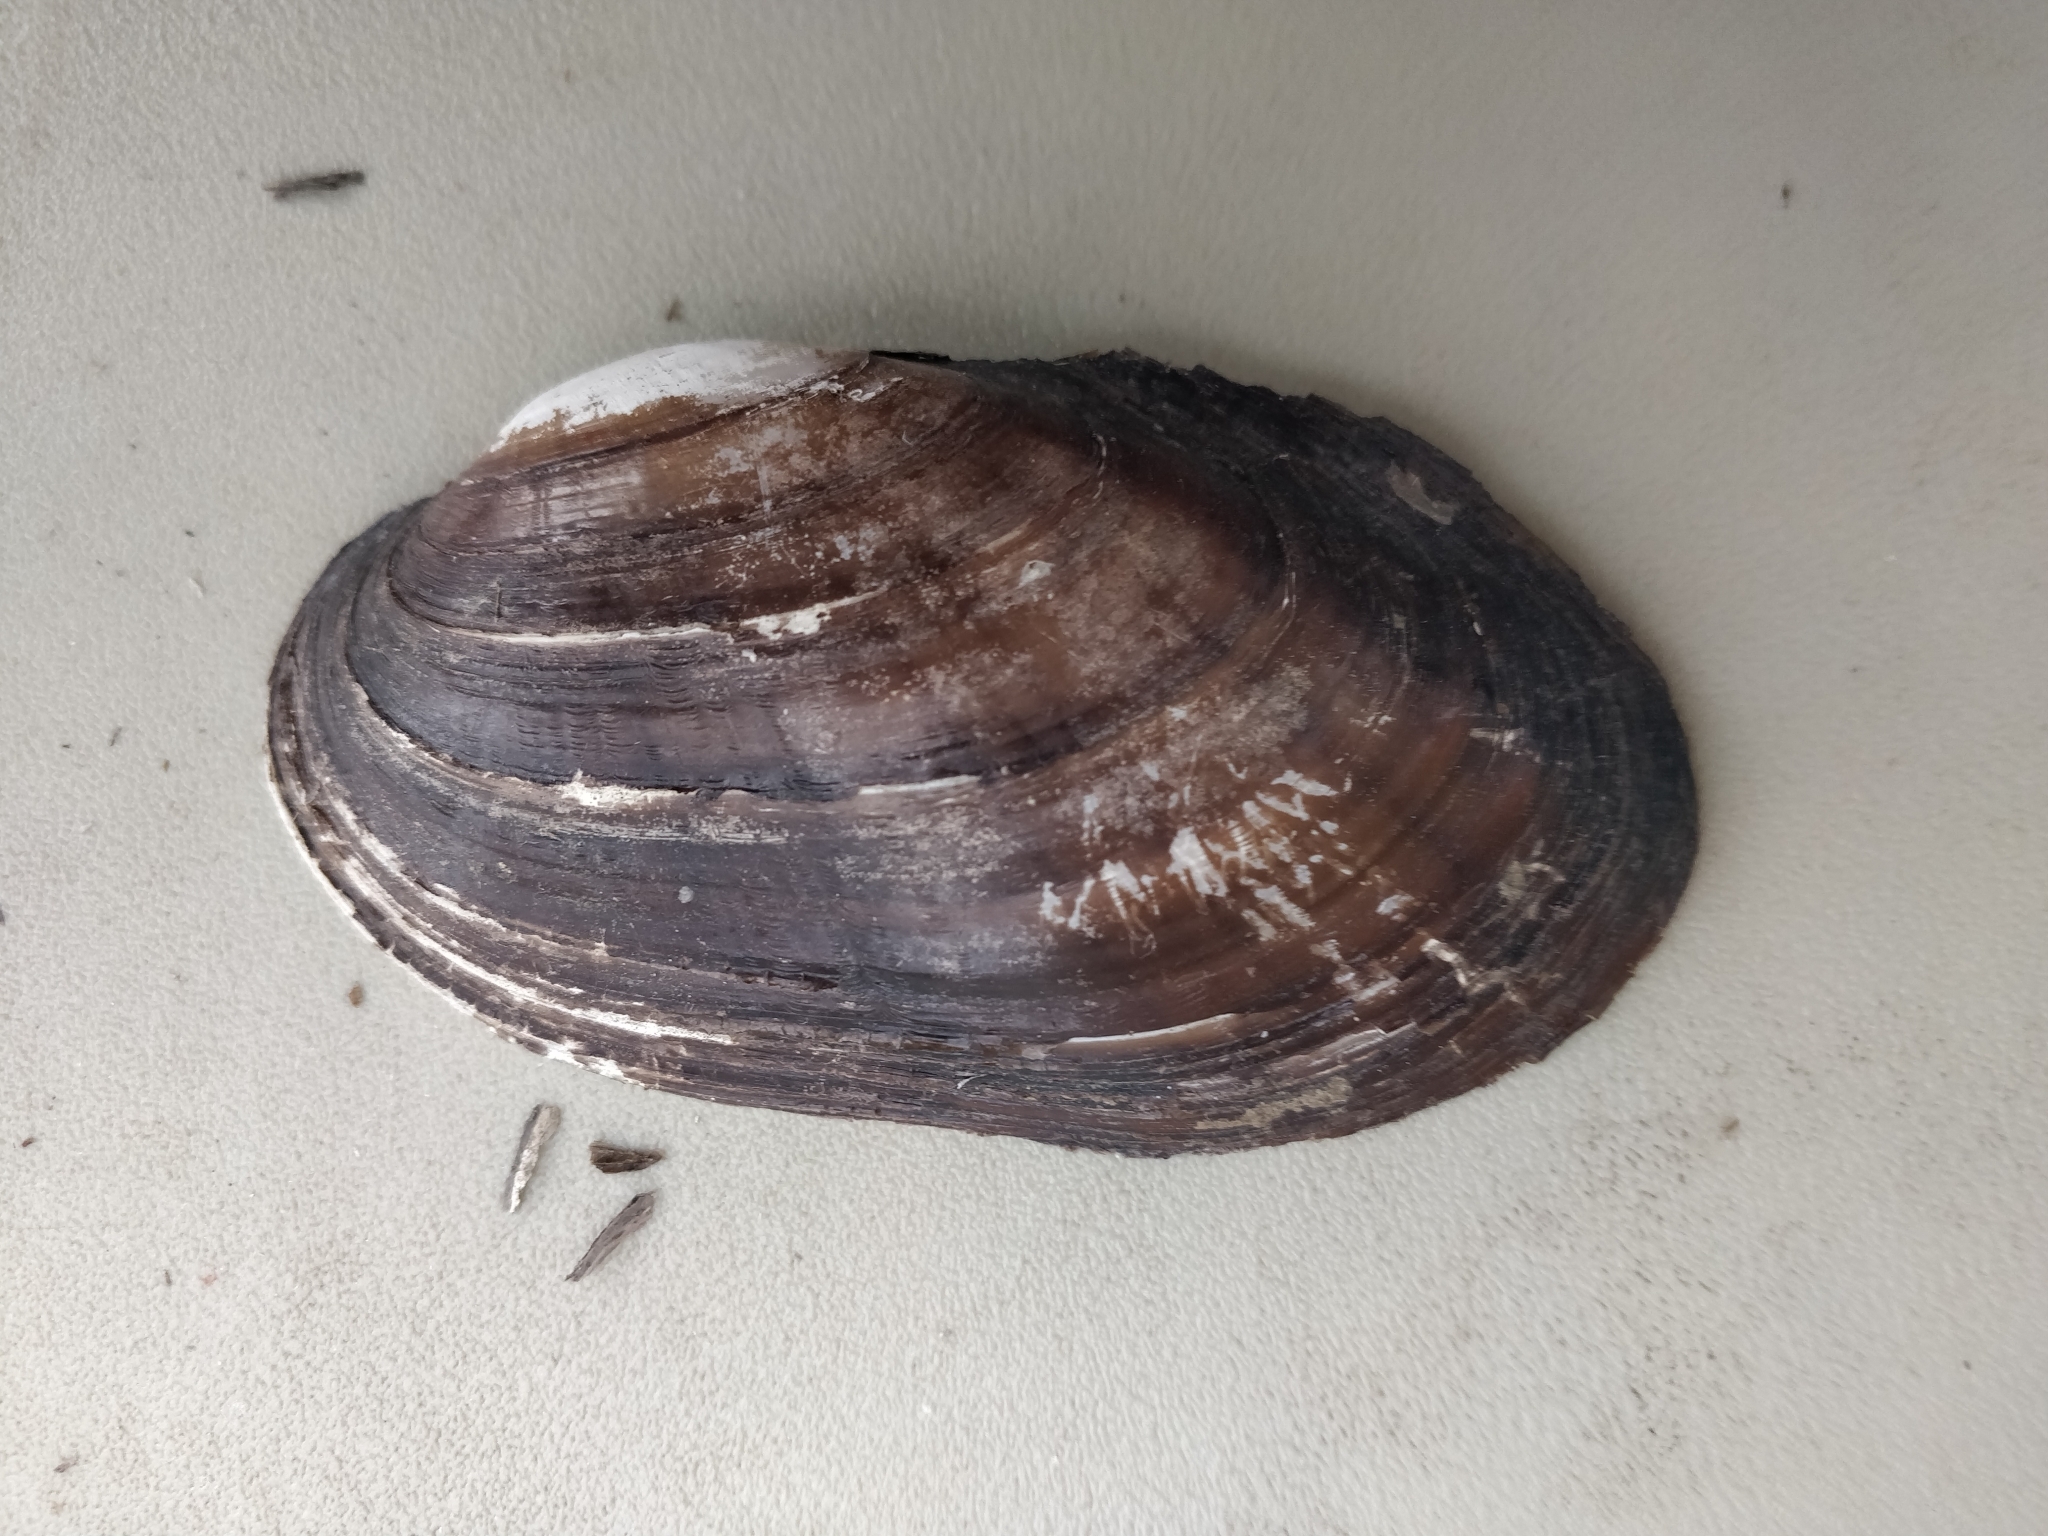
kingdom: Animalia
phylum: Mollusca
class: Bivalvia
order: Unionida
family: Unionidae
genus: Lampsilis
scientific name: Lampsilis siliquoidea
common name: Fatmucket
